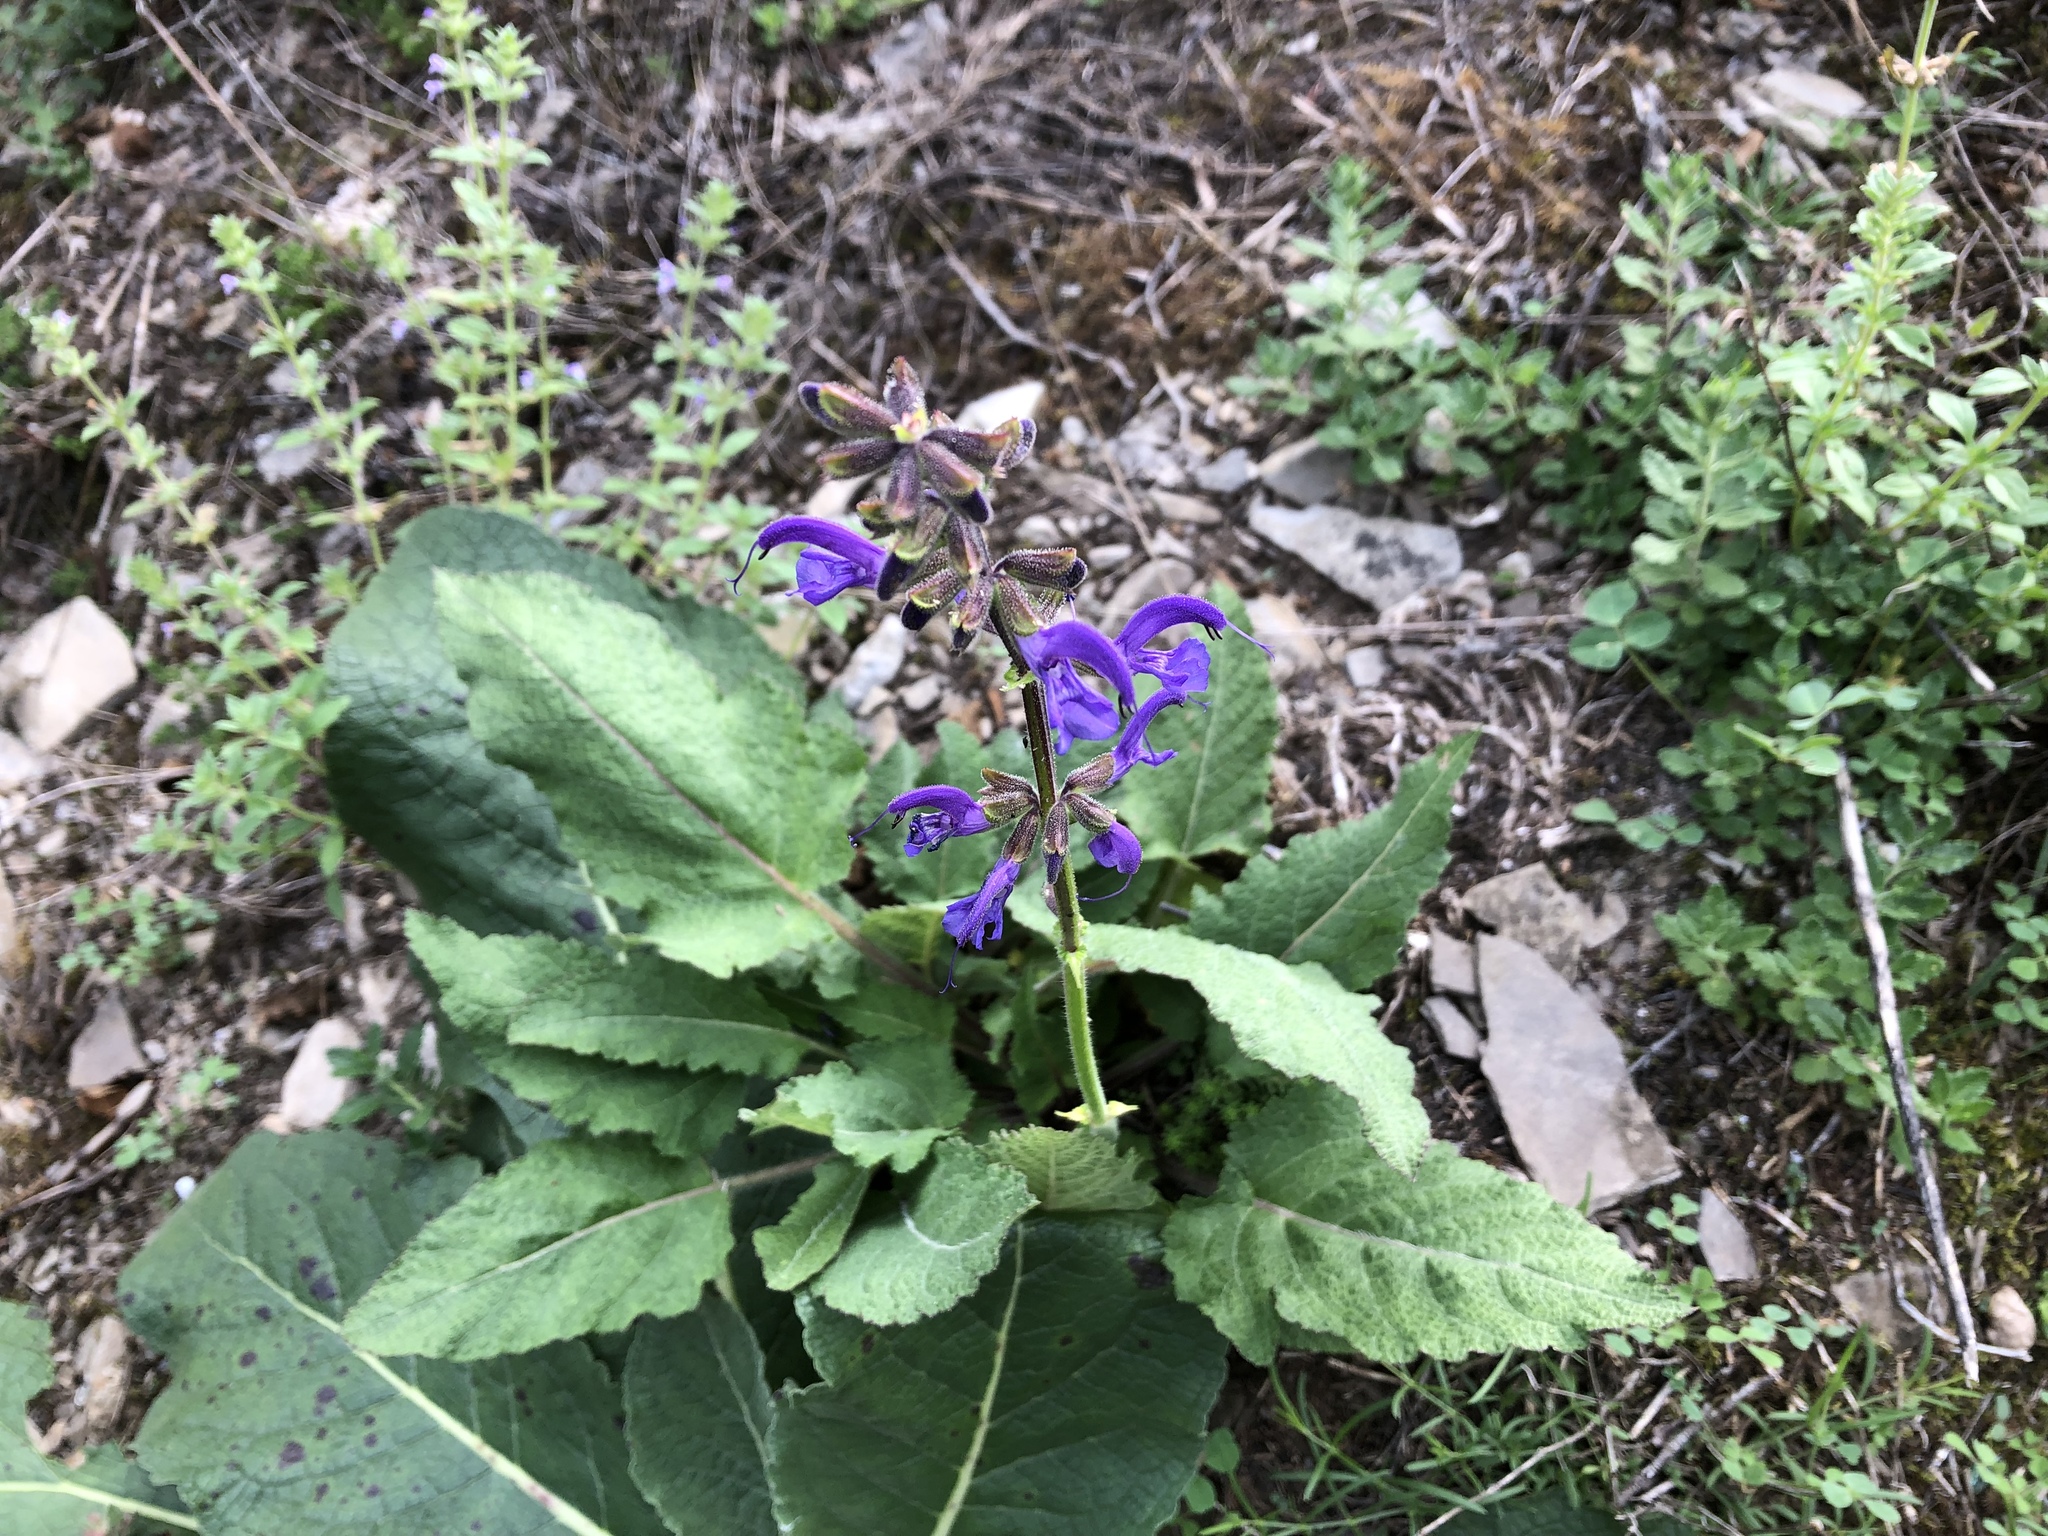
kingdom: Plantae
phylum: Tracheophyta
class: Magnoliopsida
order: Lamiales
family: Lamiaceae
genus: Salvia
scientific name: Salvia pratensis
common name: Meadow sage
